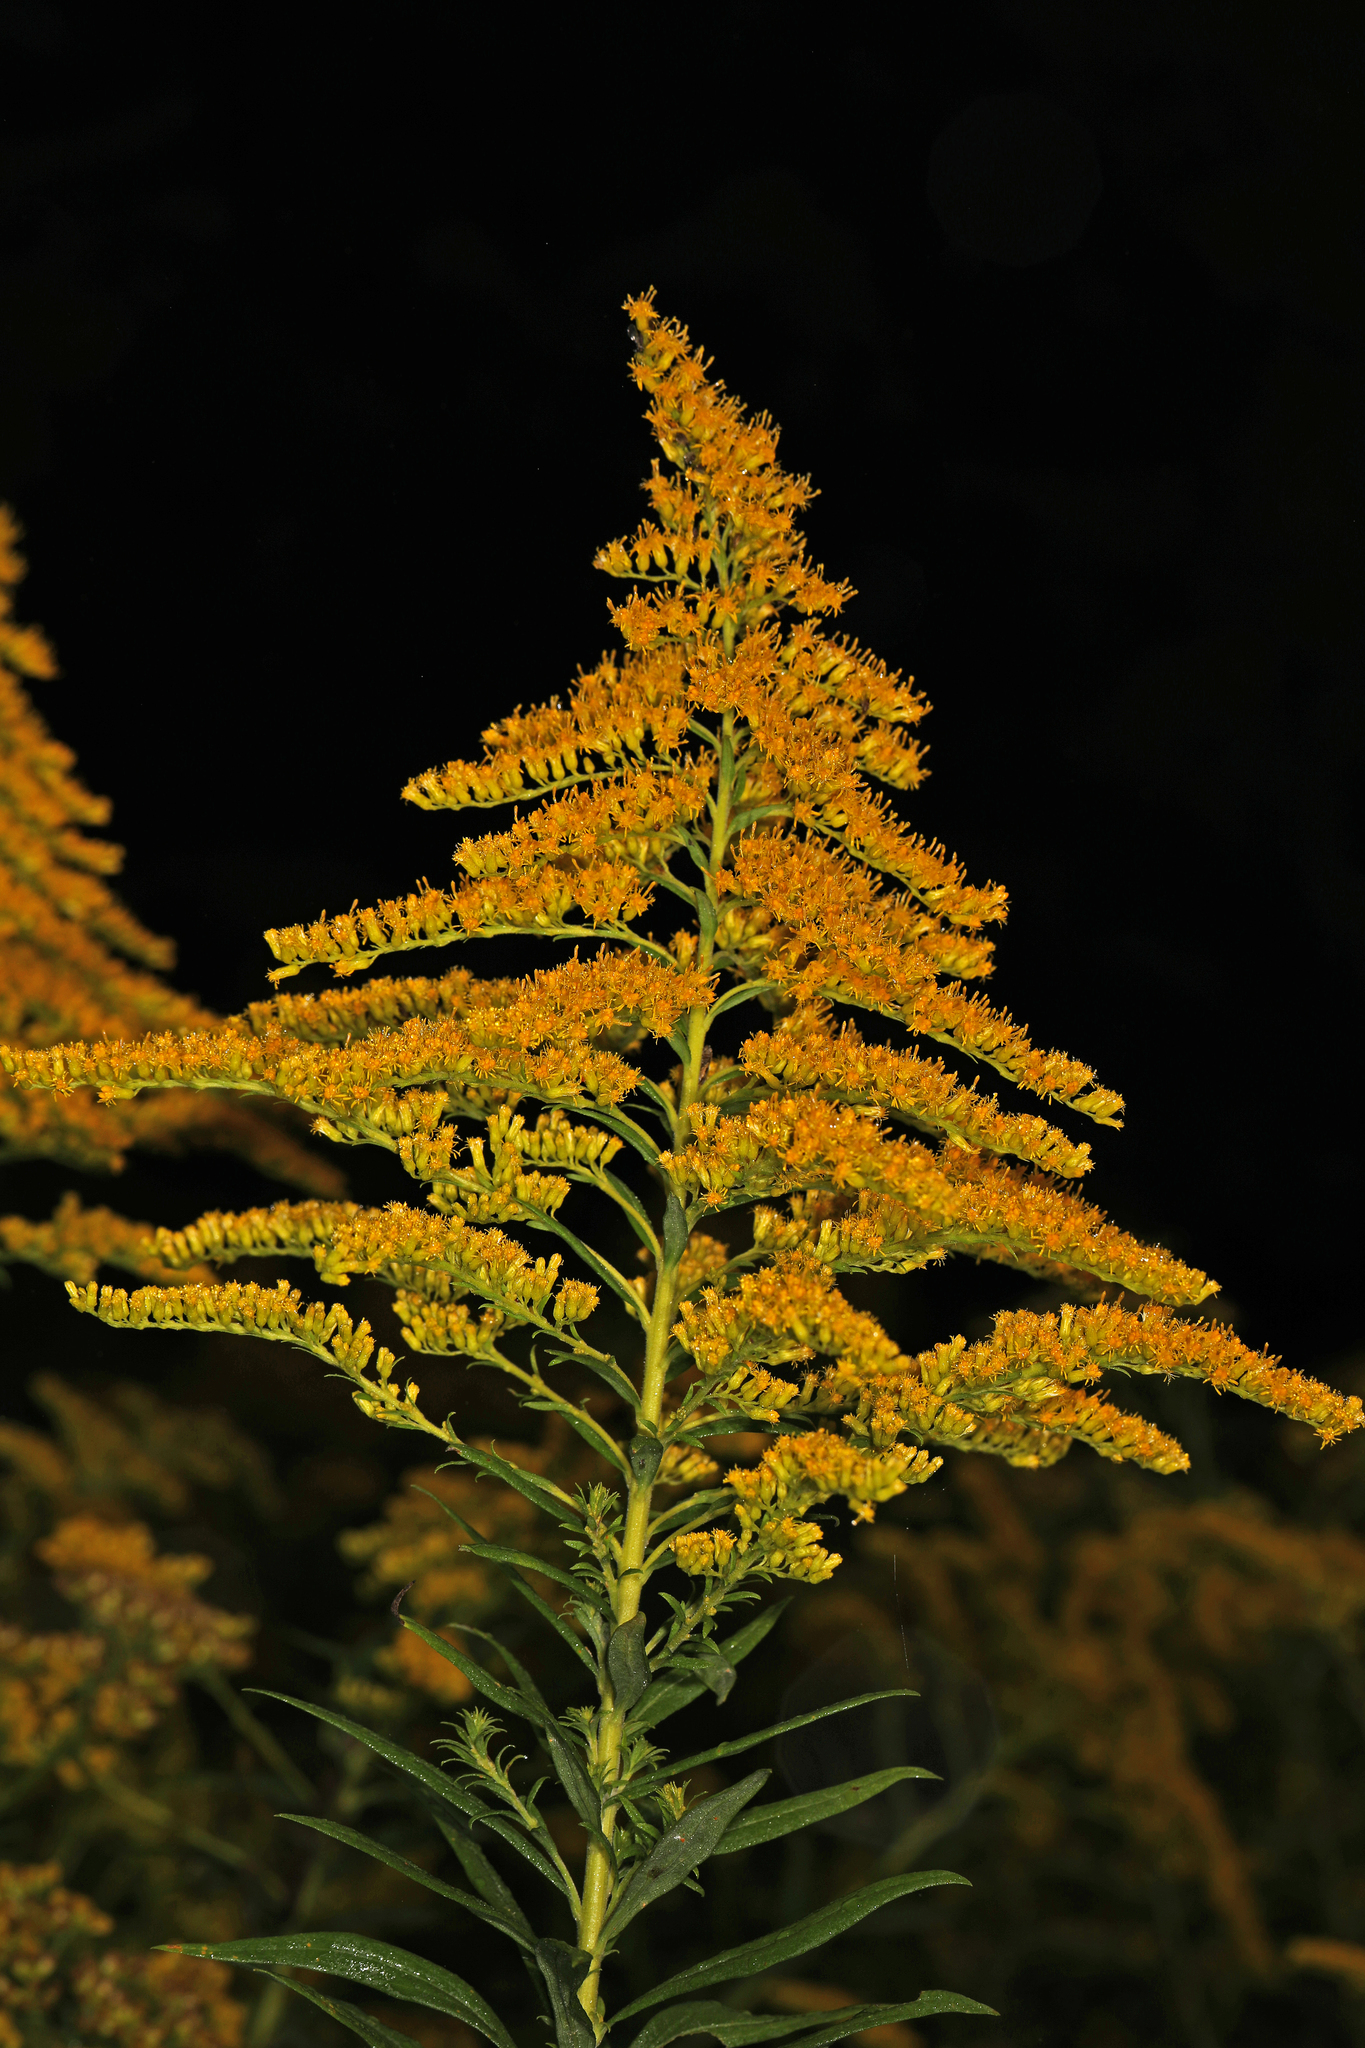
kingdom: Plantae
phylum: Tracheophyta
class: Magnoliopsida
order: Asterales
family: Asteraceae
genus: Solidago
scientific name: Solidago altissima
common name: Late goldenrod
